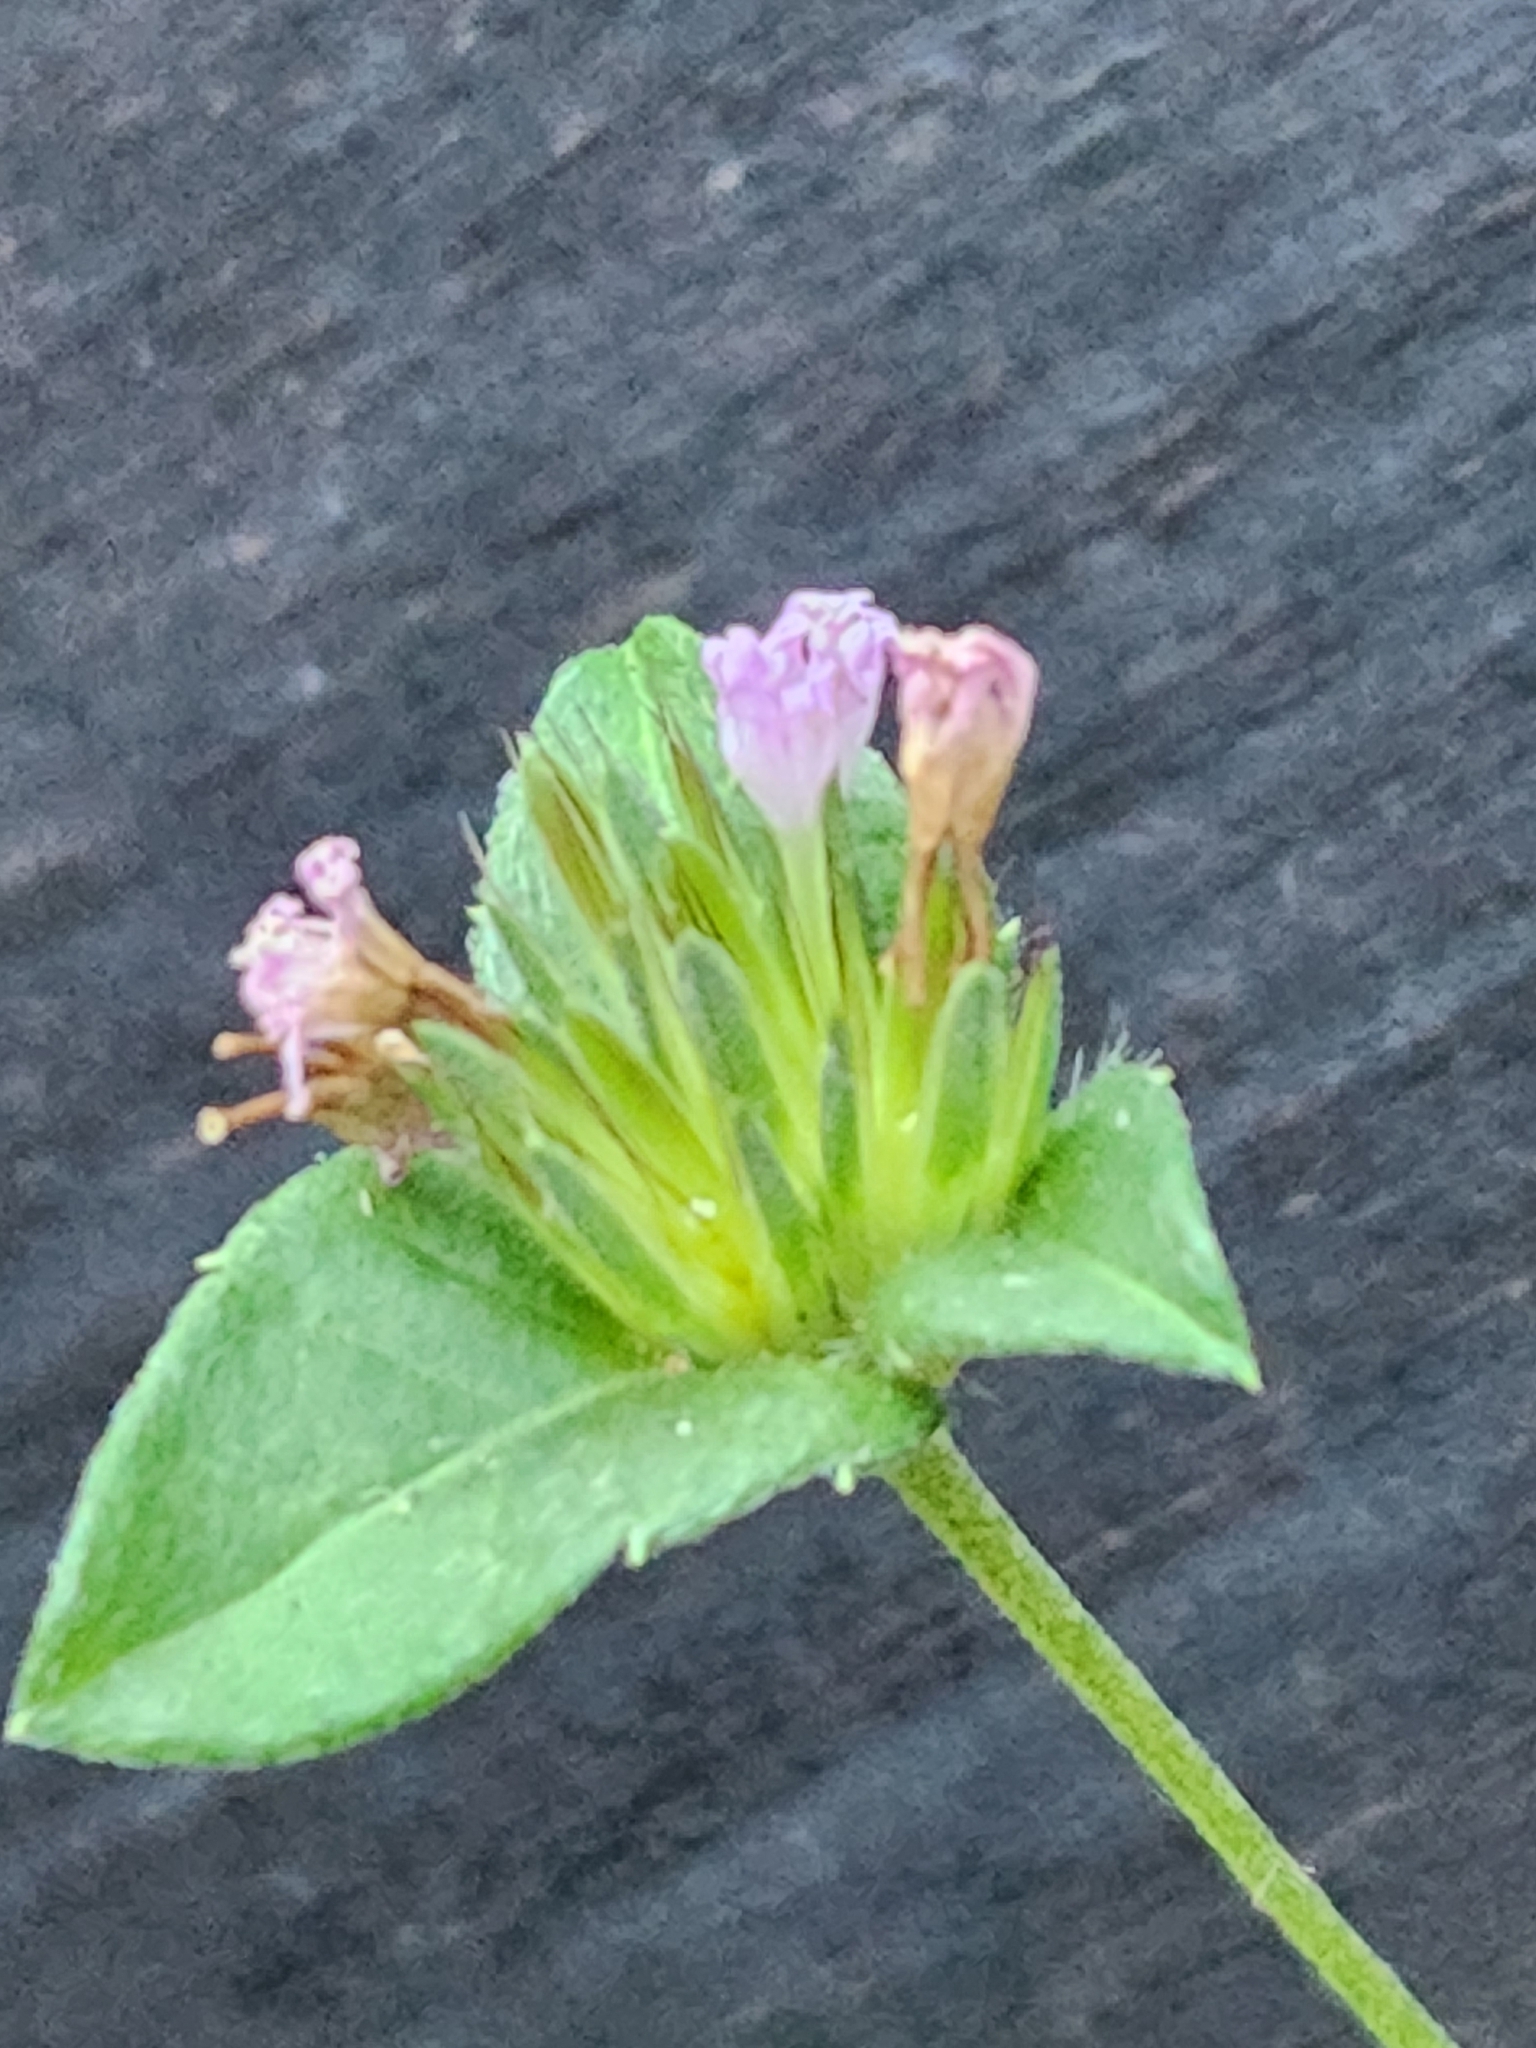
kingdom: Plantae
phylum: Tracheophyta
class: Magnoliopsida
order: Asterales
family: Asteraceae
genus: Elephantopus
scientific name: Elephantopus carolinianus
